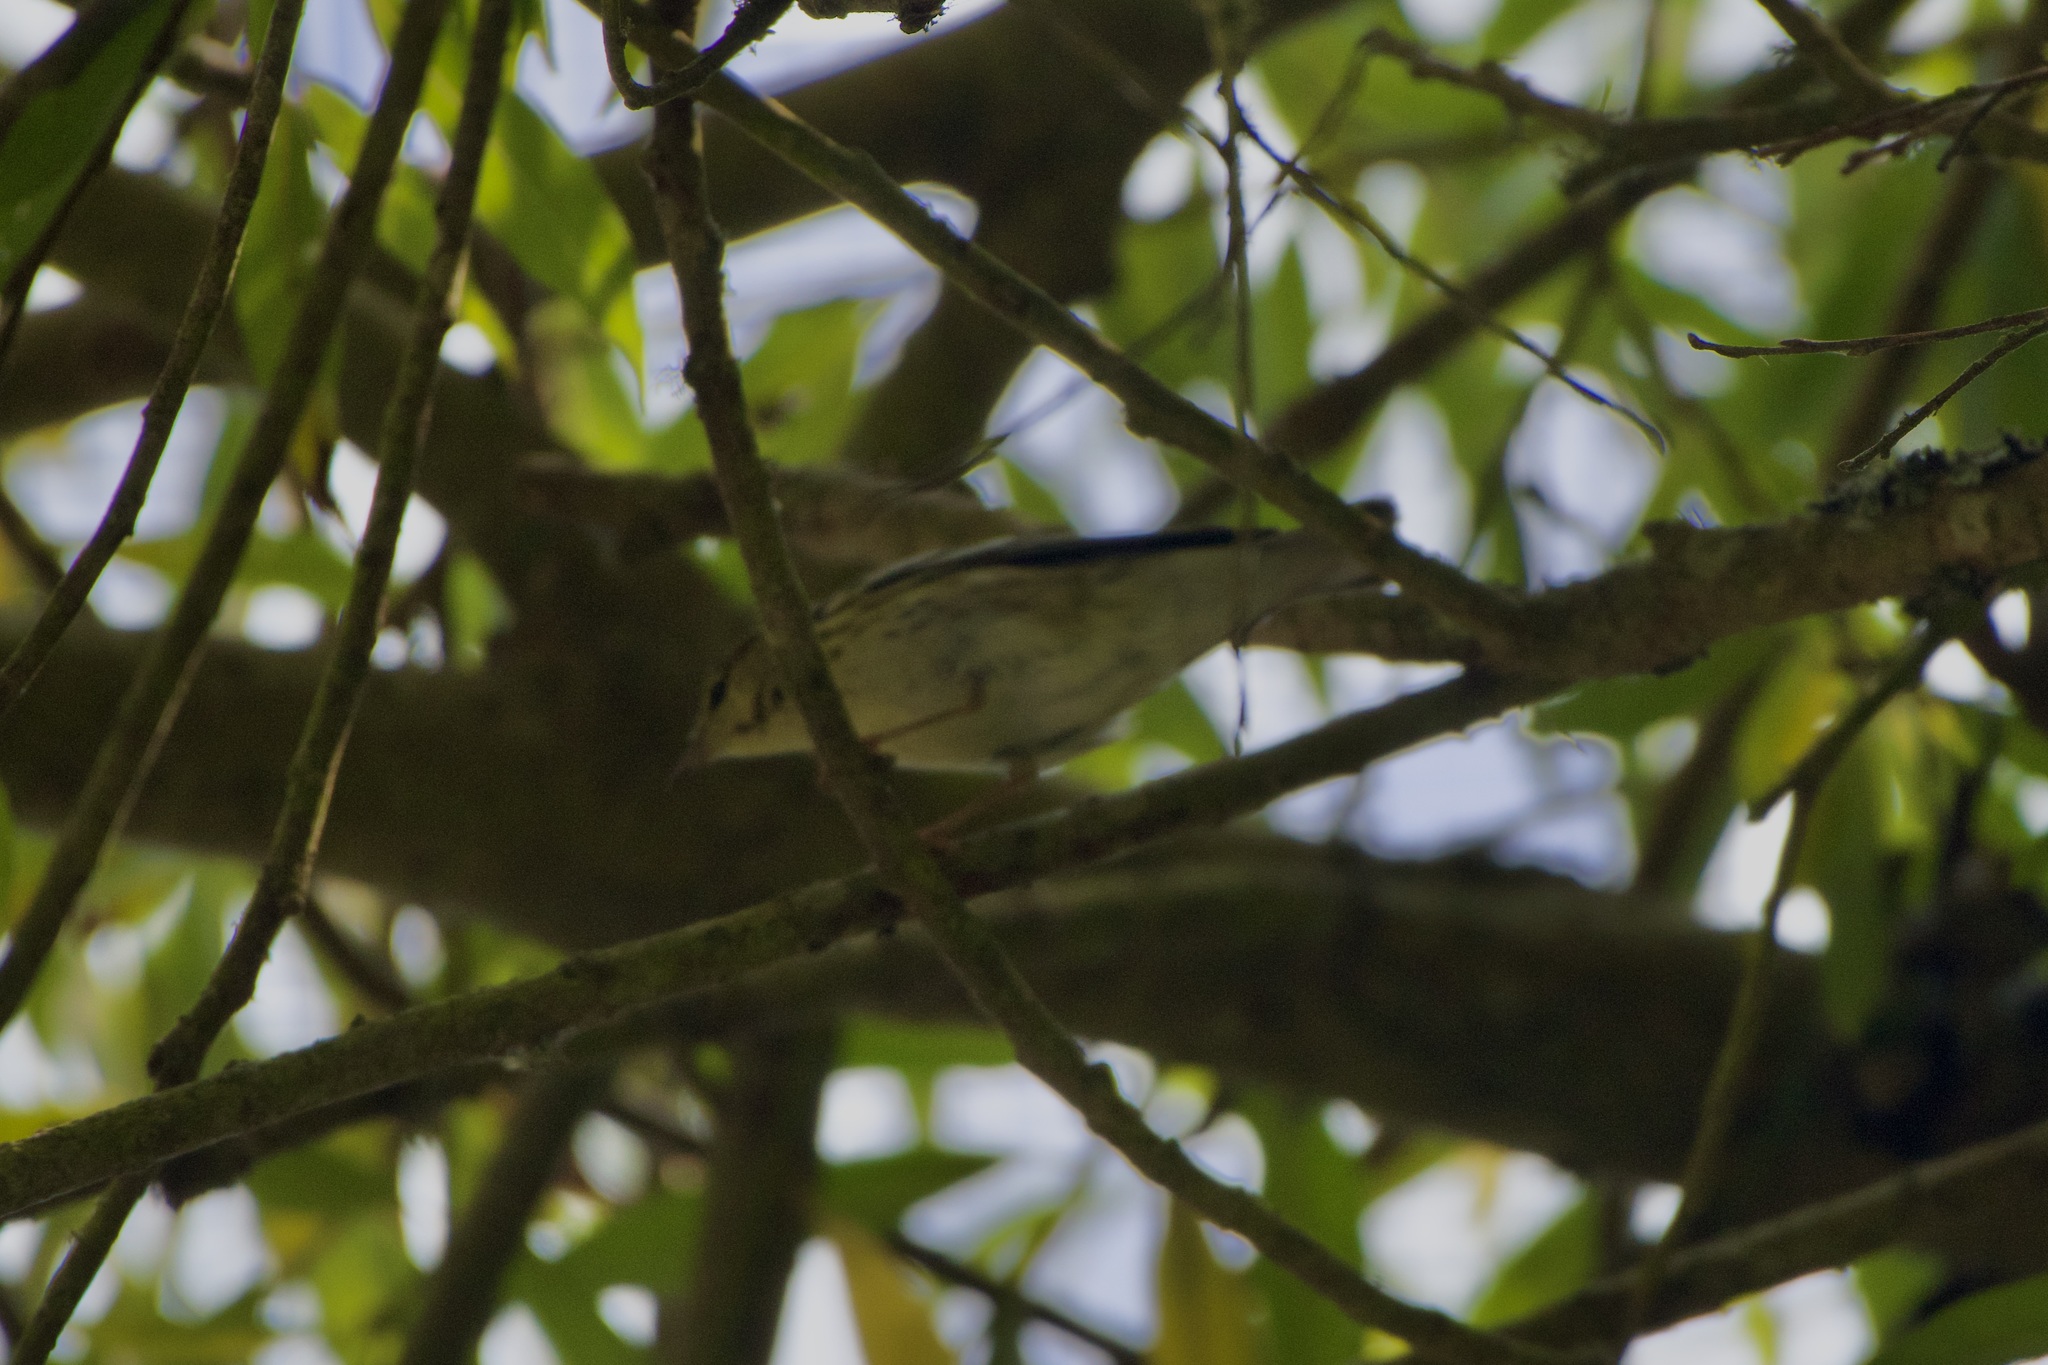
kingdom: Animalia
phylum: Chordata
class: Aves
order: Passeriformes
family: Parulidae
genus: Setophaga
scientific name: Setophaga striata
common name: Blackpoll warbler
